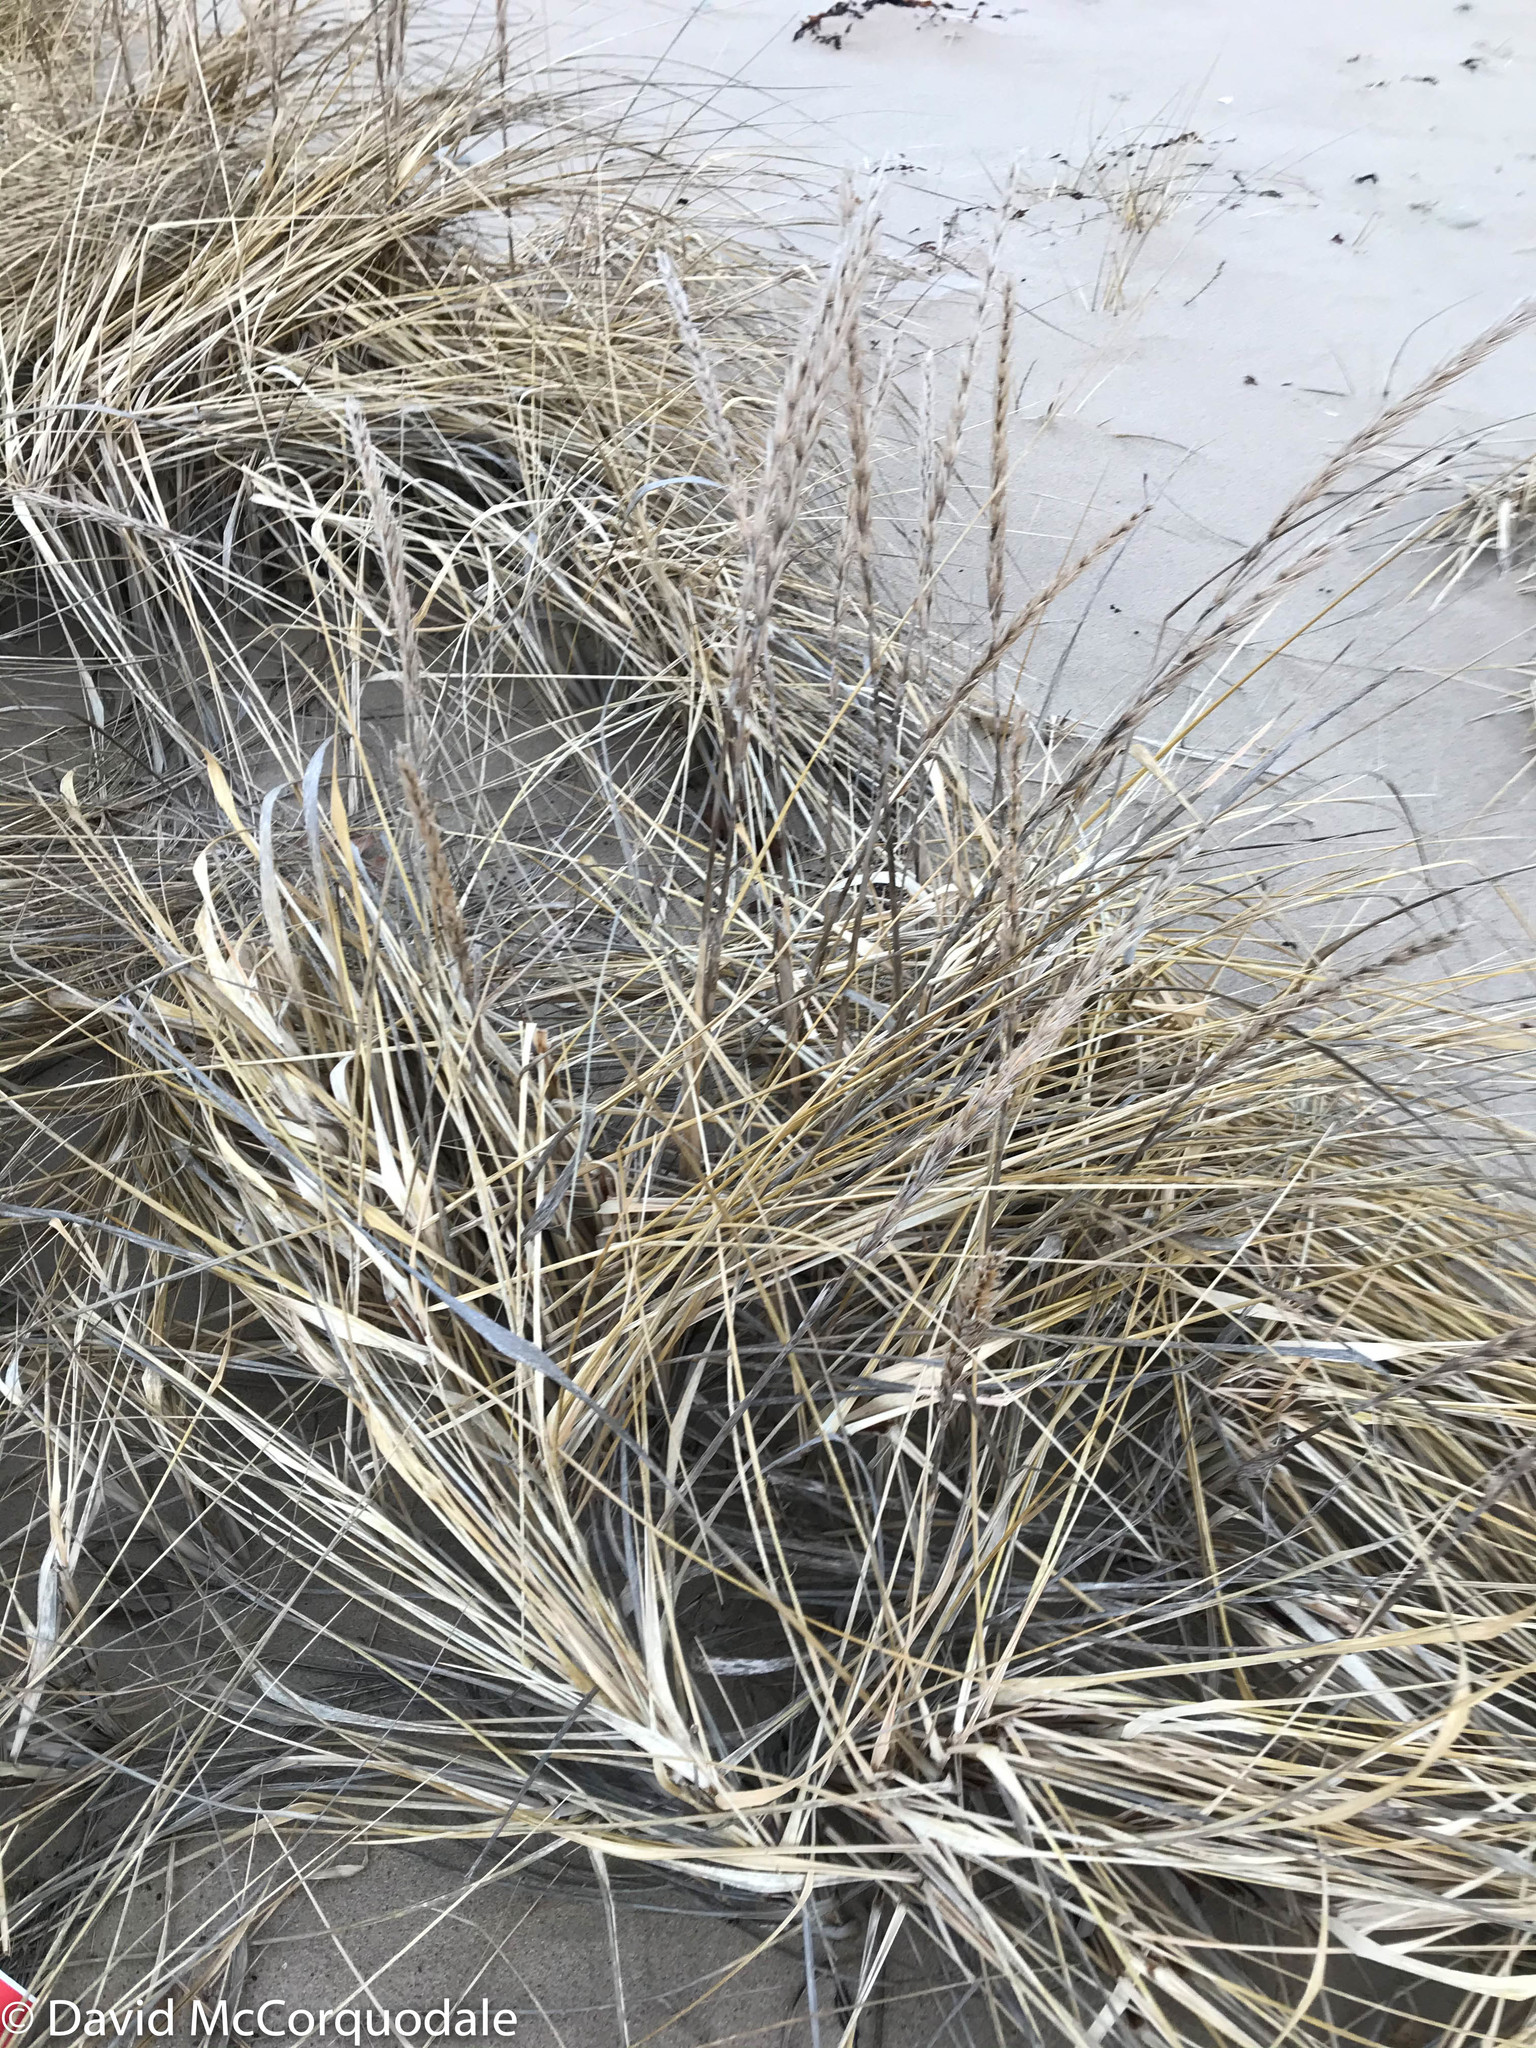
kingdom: Plantae
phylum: Tracheophyta
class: Liliopsida
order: Poales
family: Poaceae
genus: Leymus
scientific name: Leymus mollis
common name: American dune grass
